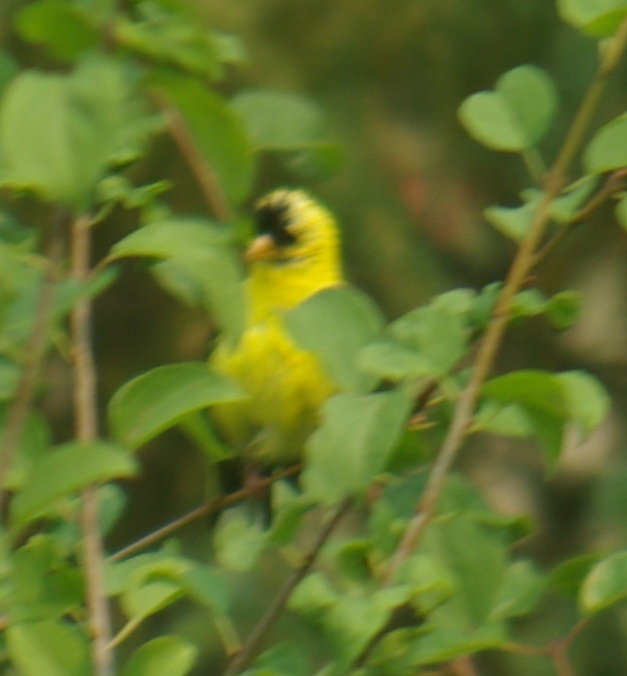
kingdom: Animalia
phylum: Chordata
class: Aves
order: Passeriformes
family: Fringillidae
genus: Spinus
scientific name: Spinus tristis
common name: American goldfinch
